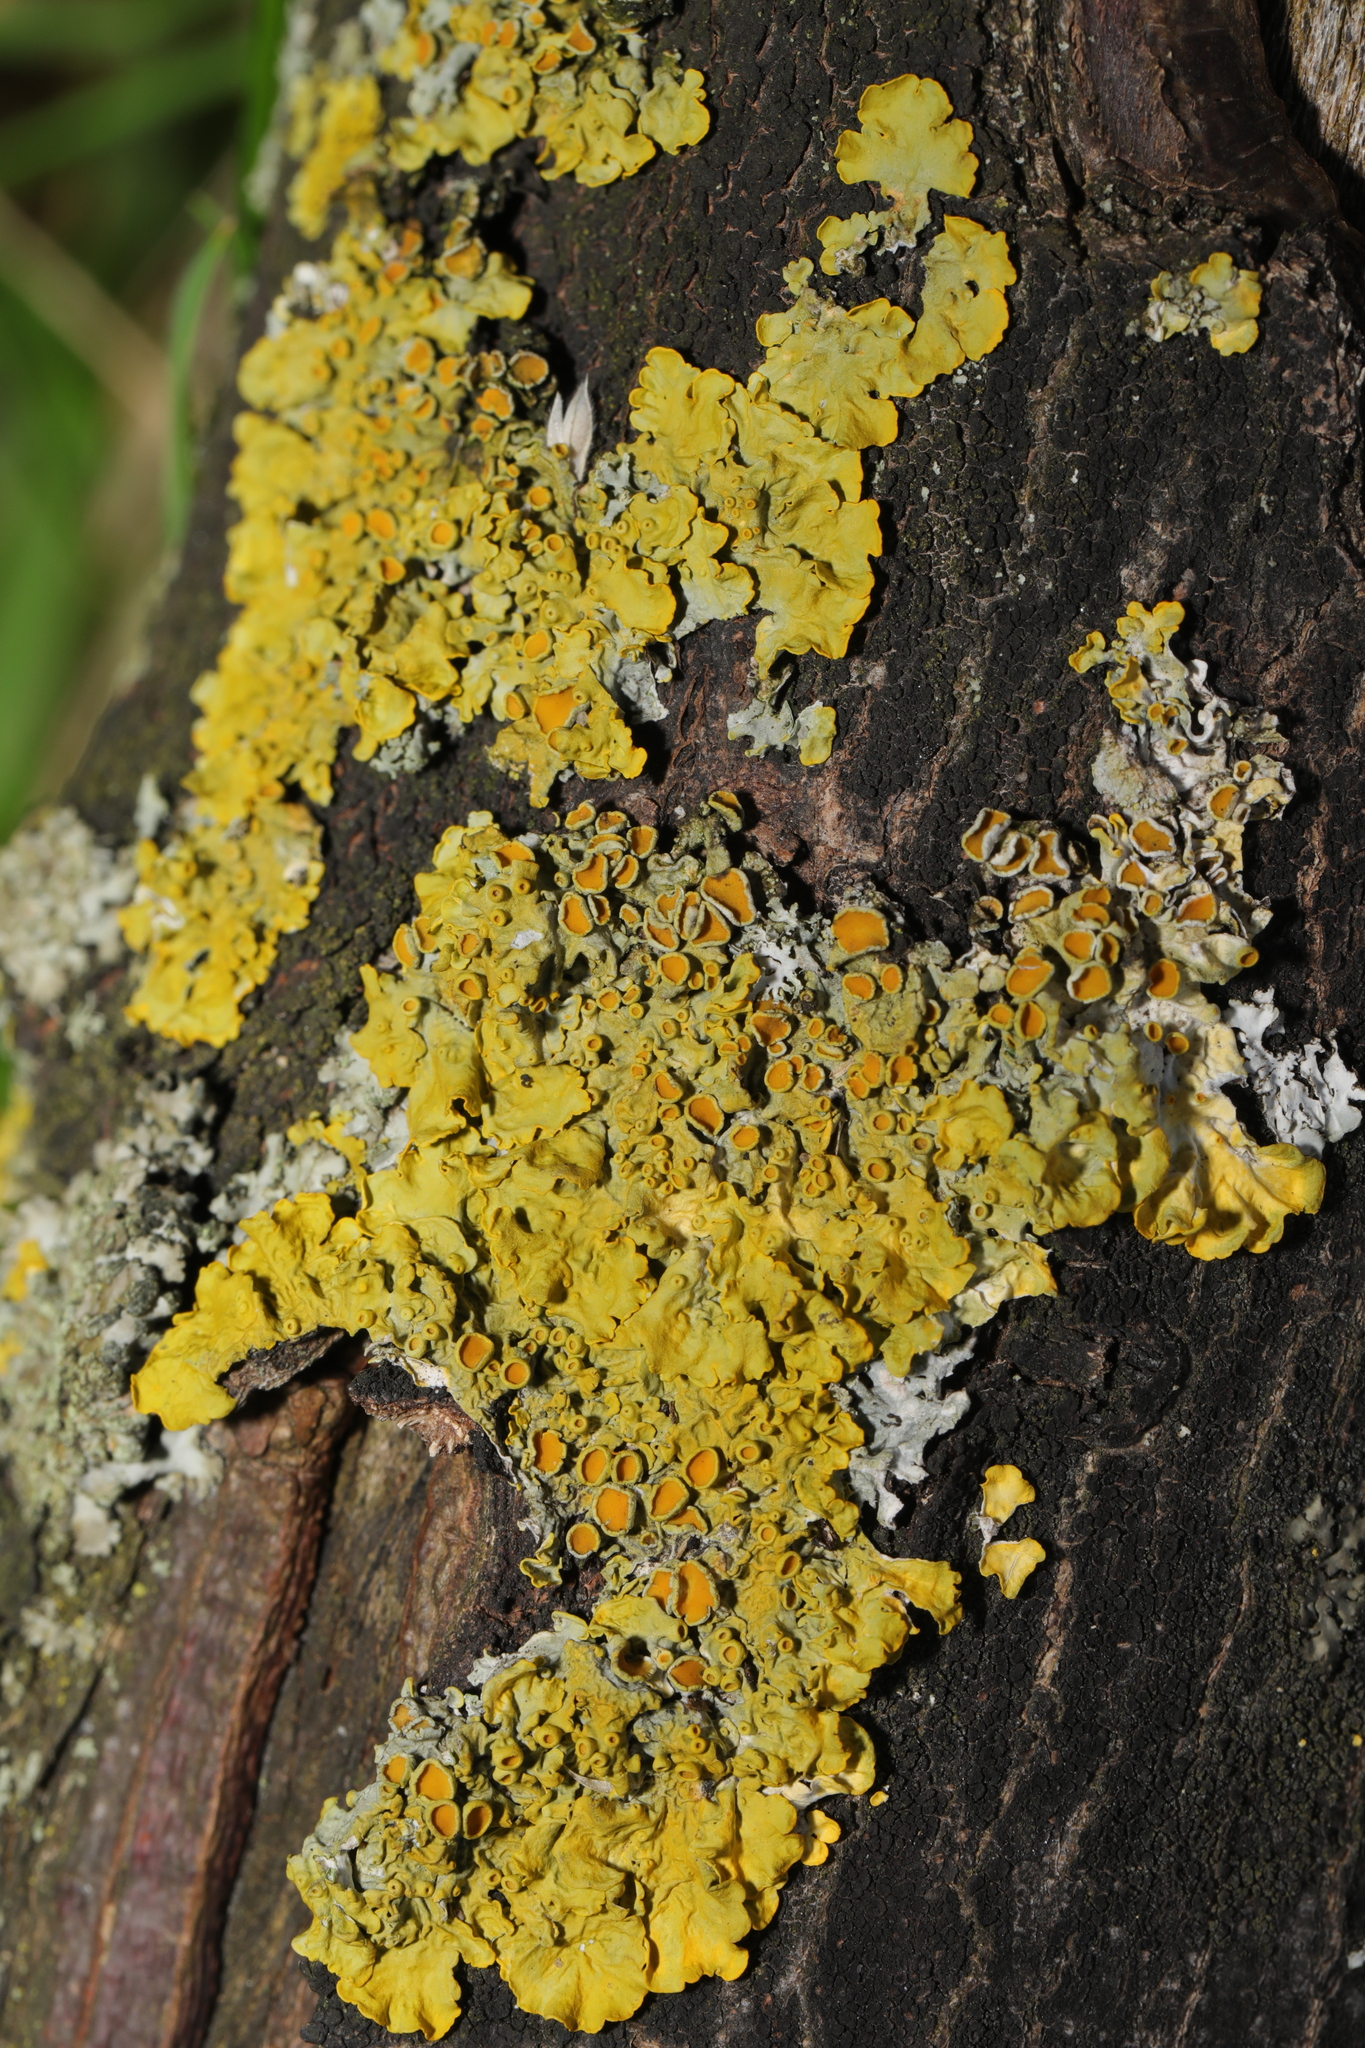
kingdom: Fungi
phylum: Ascomycota
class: Lecanoromycetes
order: Teloschistales
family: Teloschistaceae
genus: Xanthoria
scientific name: Xanthoria parietina
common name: Common orange lichen
